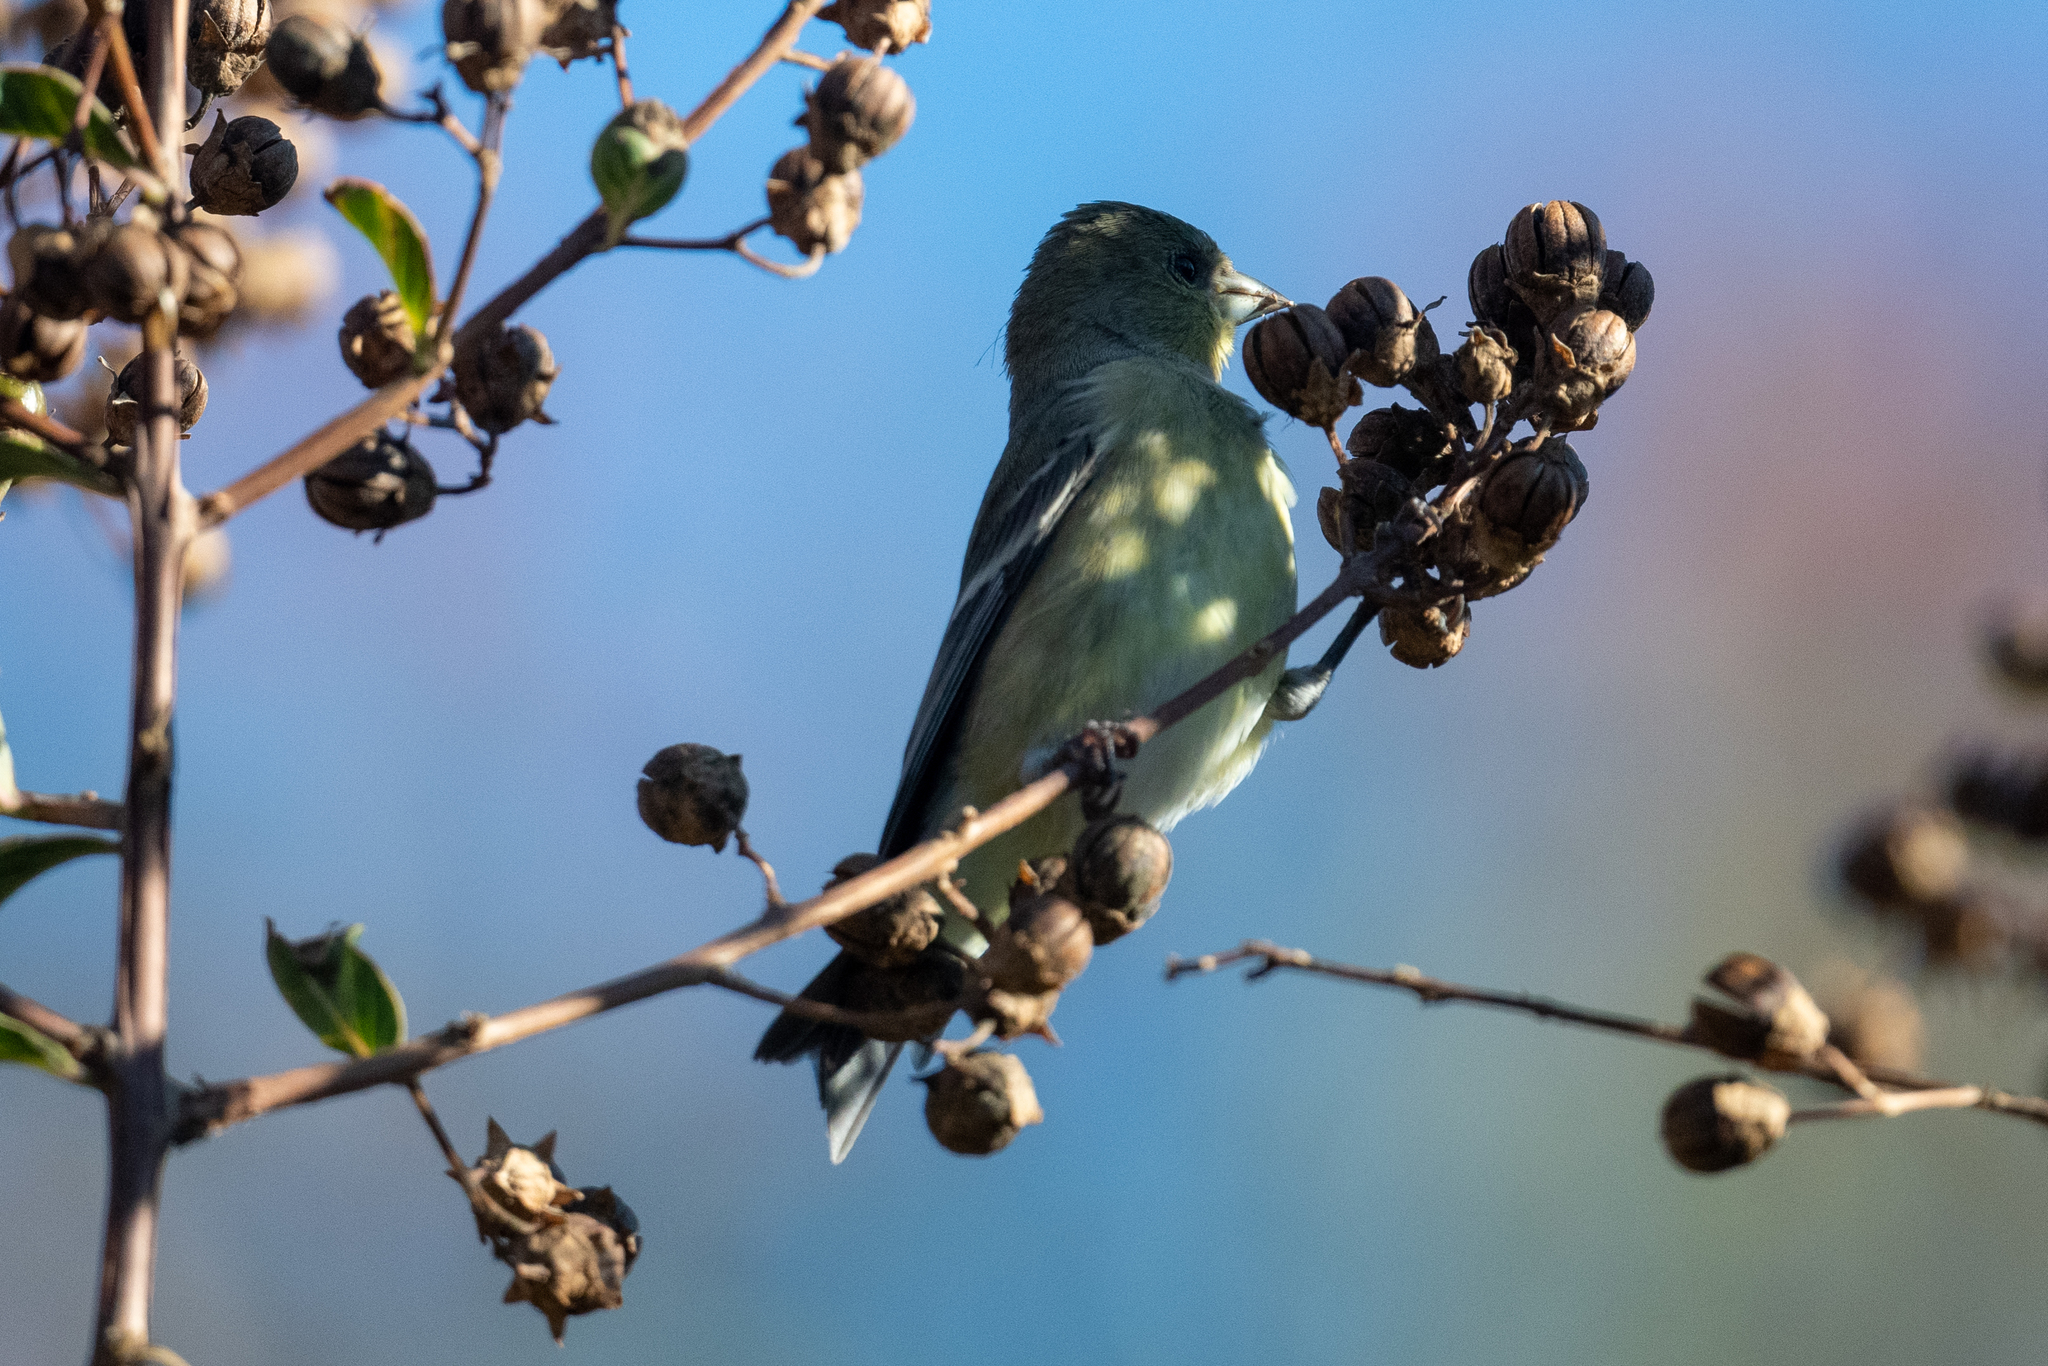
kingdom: Animalia
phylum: Chordata
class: Aves
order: Passeriformes
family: Fringillidae
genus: Spinus
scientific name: Spinus psaltria
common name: Lesser goldfinch
